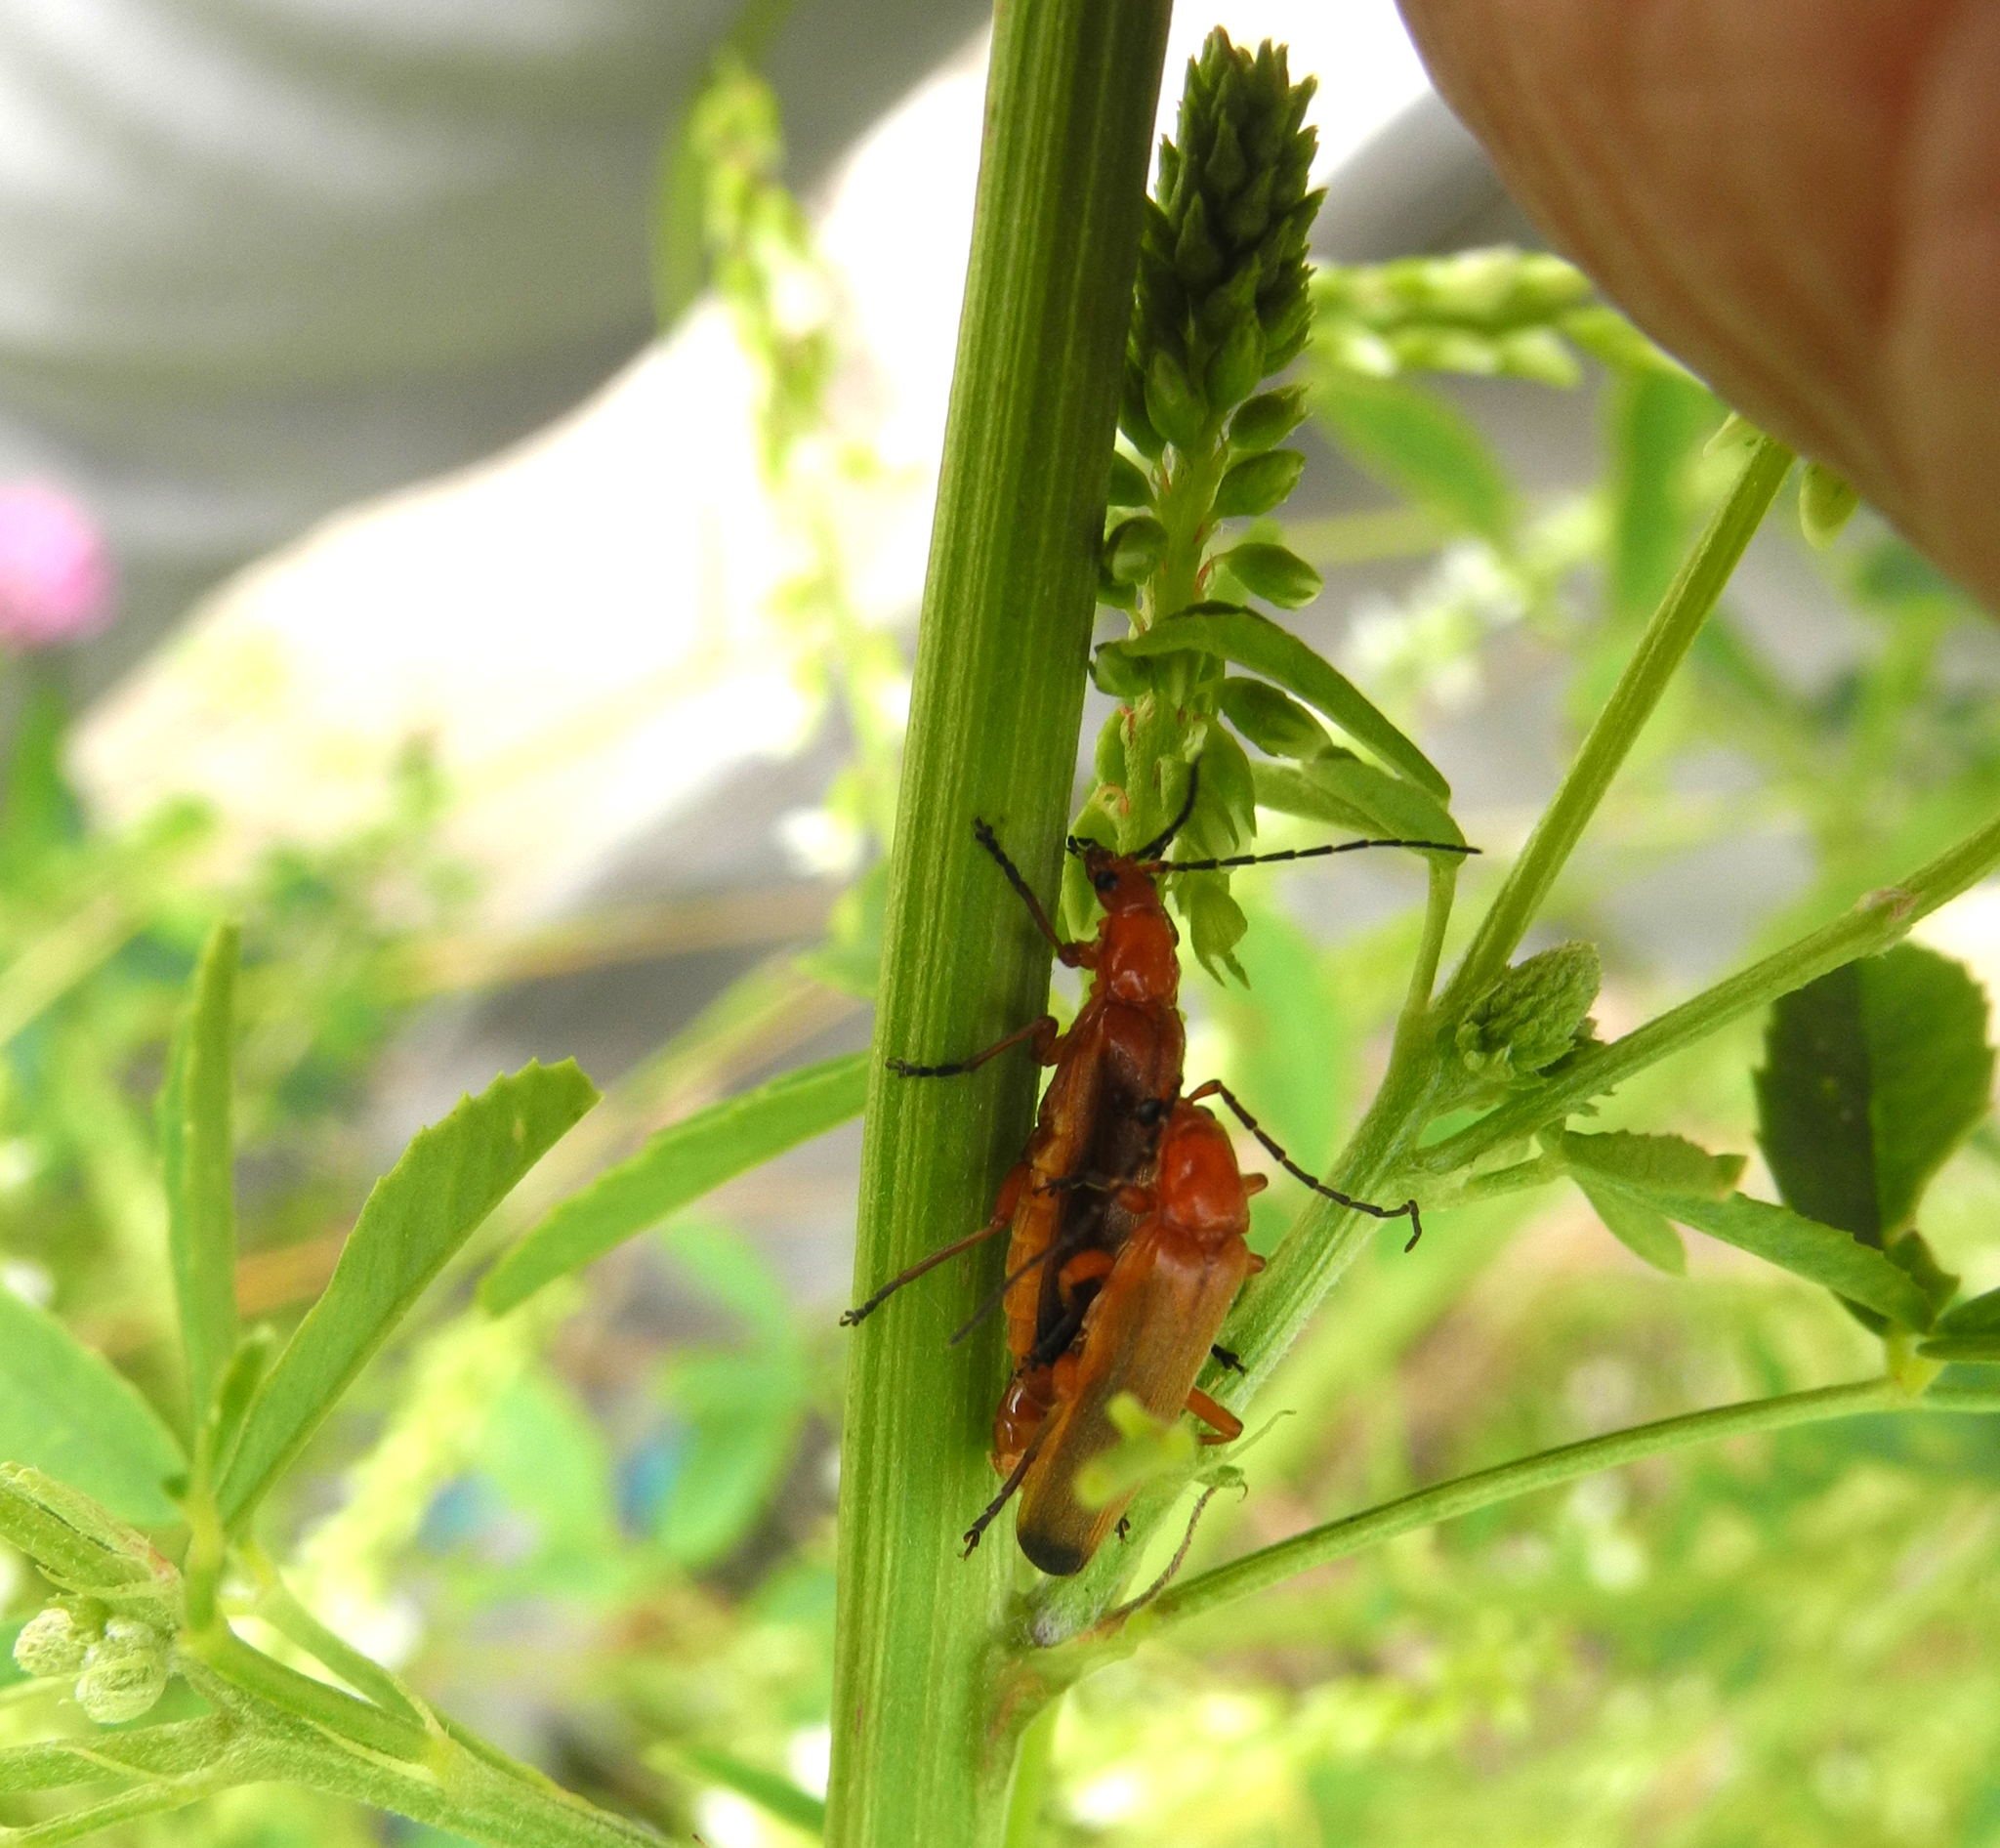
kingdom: Animalia
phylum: Arthropoda
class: Insecta
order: Coleoptera
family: Cantharidae
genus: Rhagonycha
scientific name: Rhagonycha fulva
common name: Common red soldier beetle
